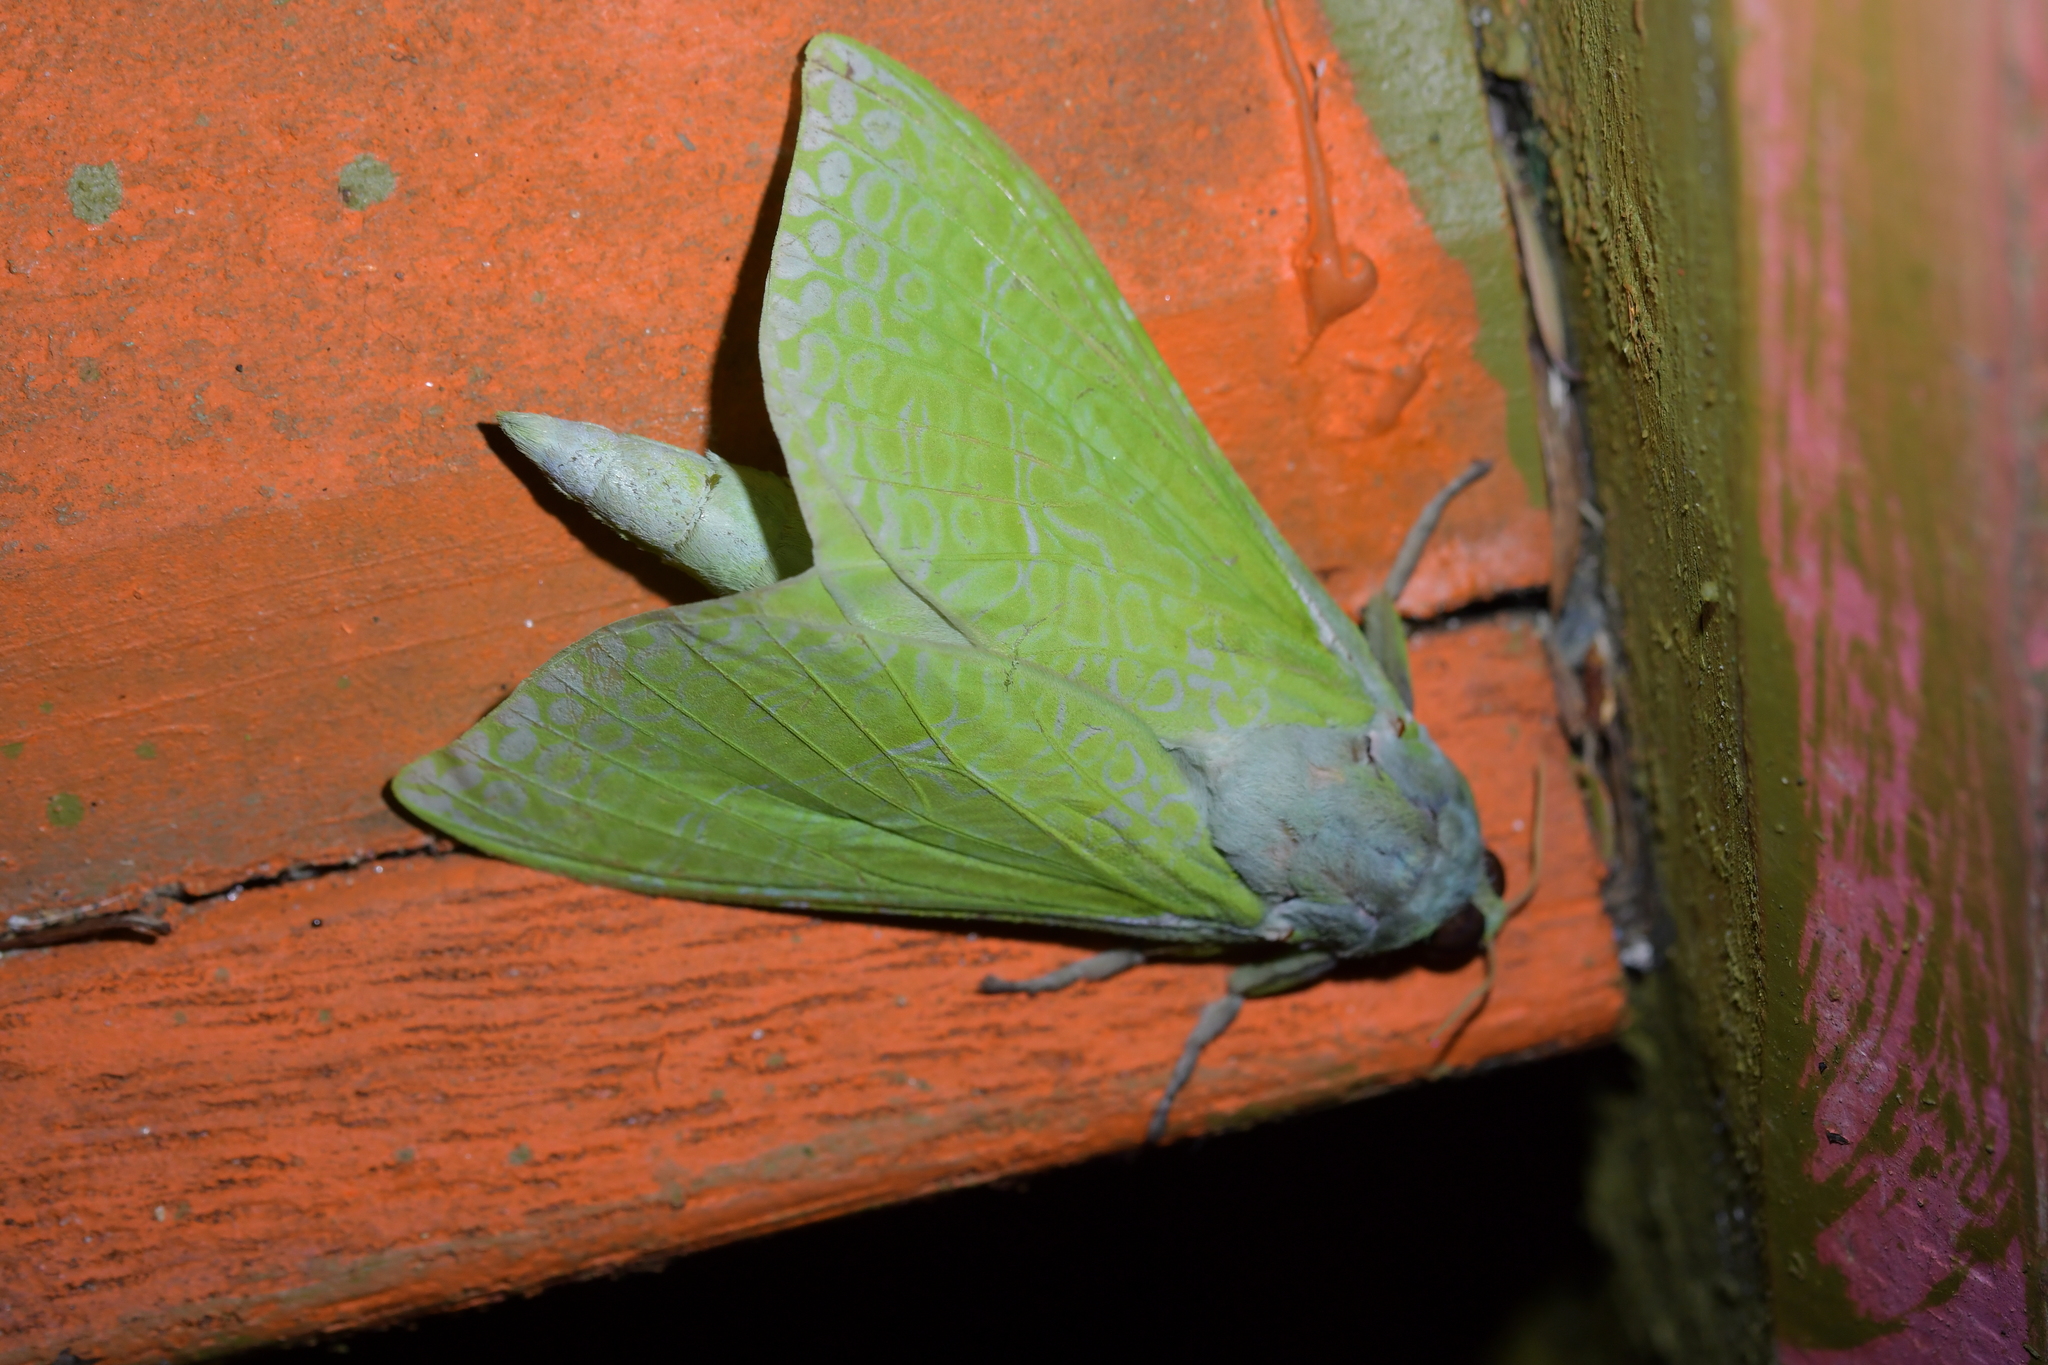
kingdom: Animalia
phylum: Arthropoda
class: Insecta
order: Lepidoptera
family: Hepialidae
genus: Aenetus
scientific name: Aenetus virescens
